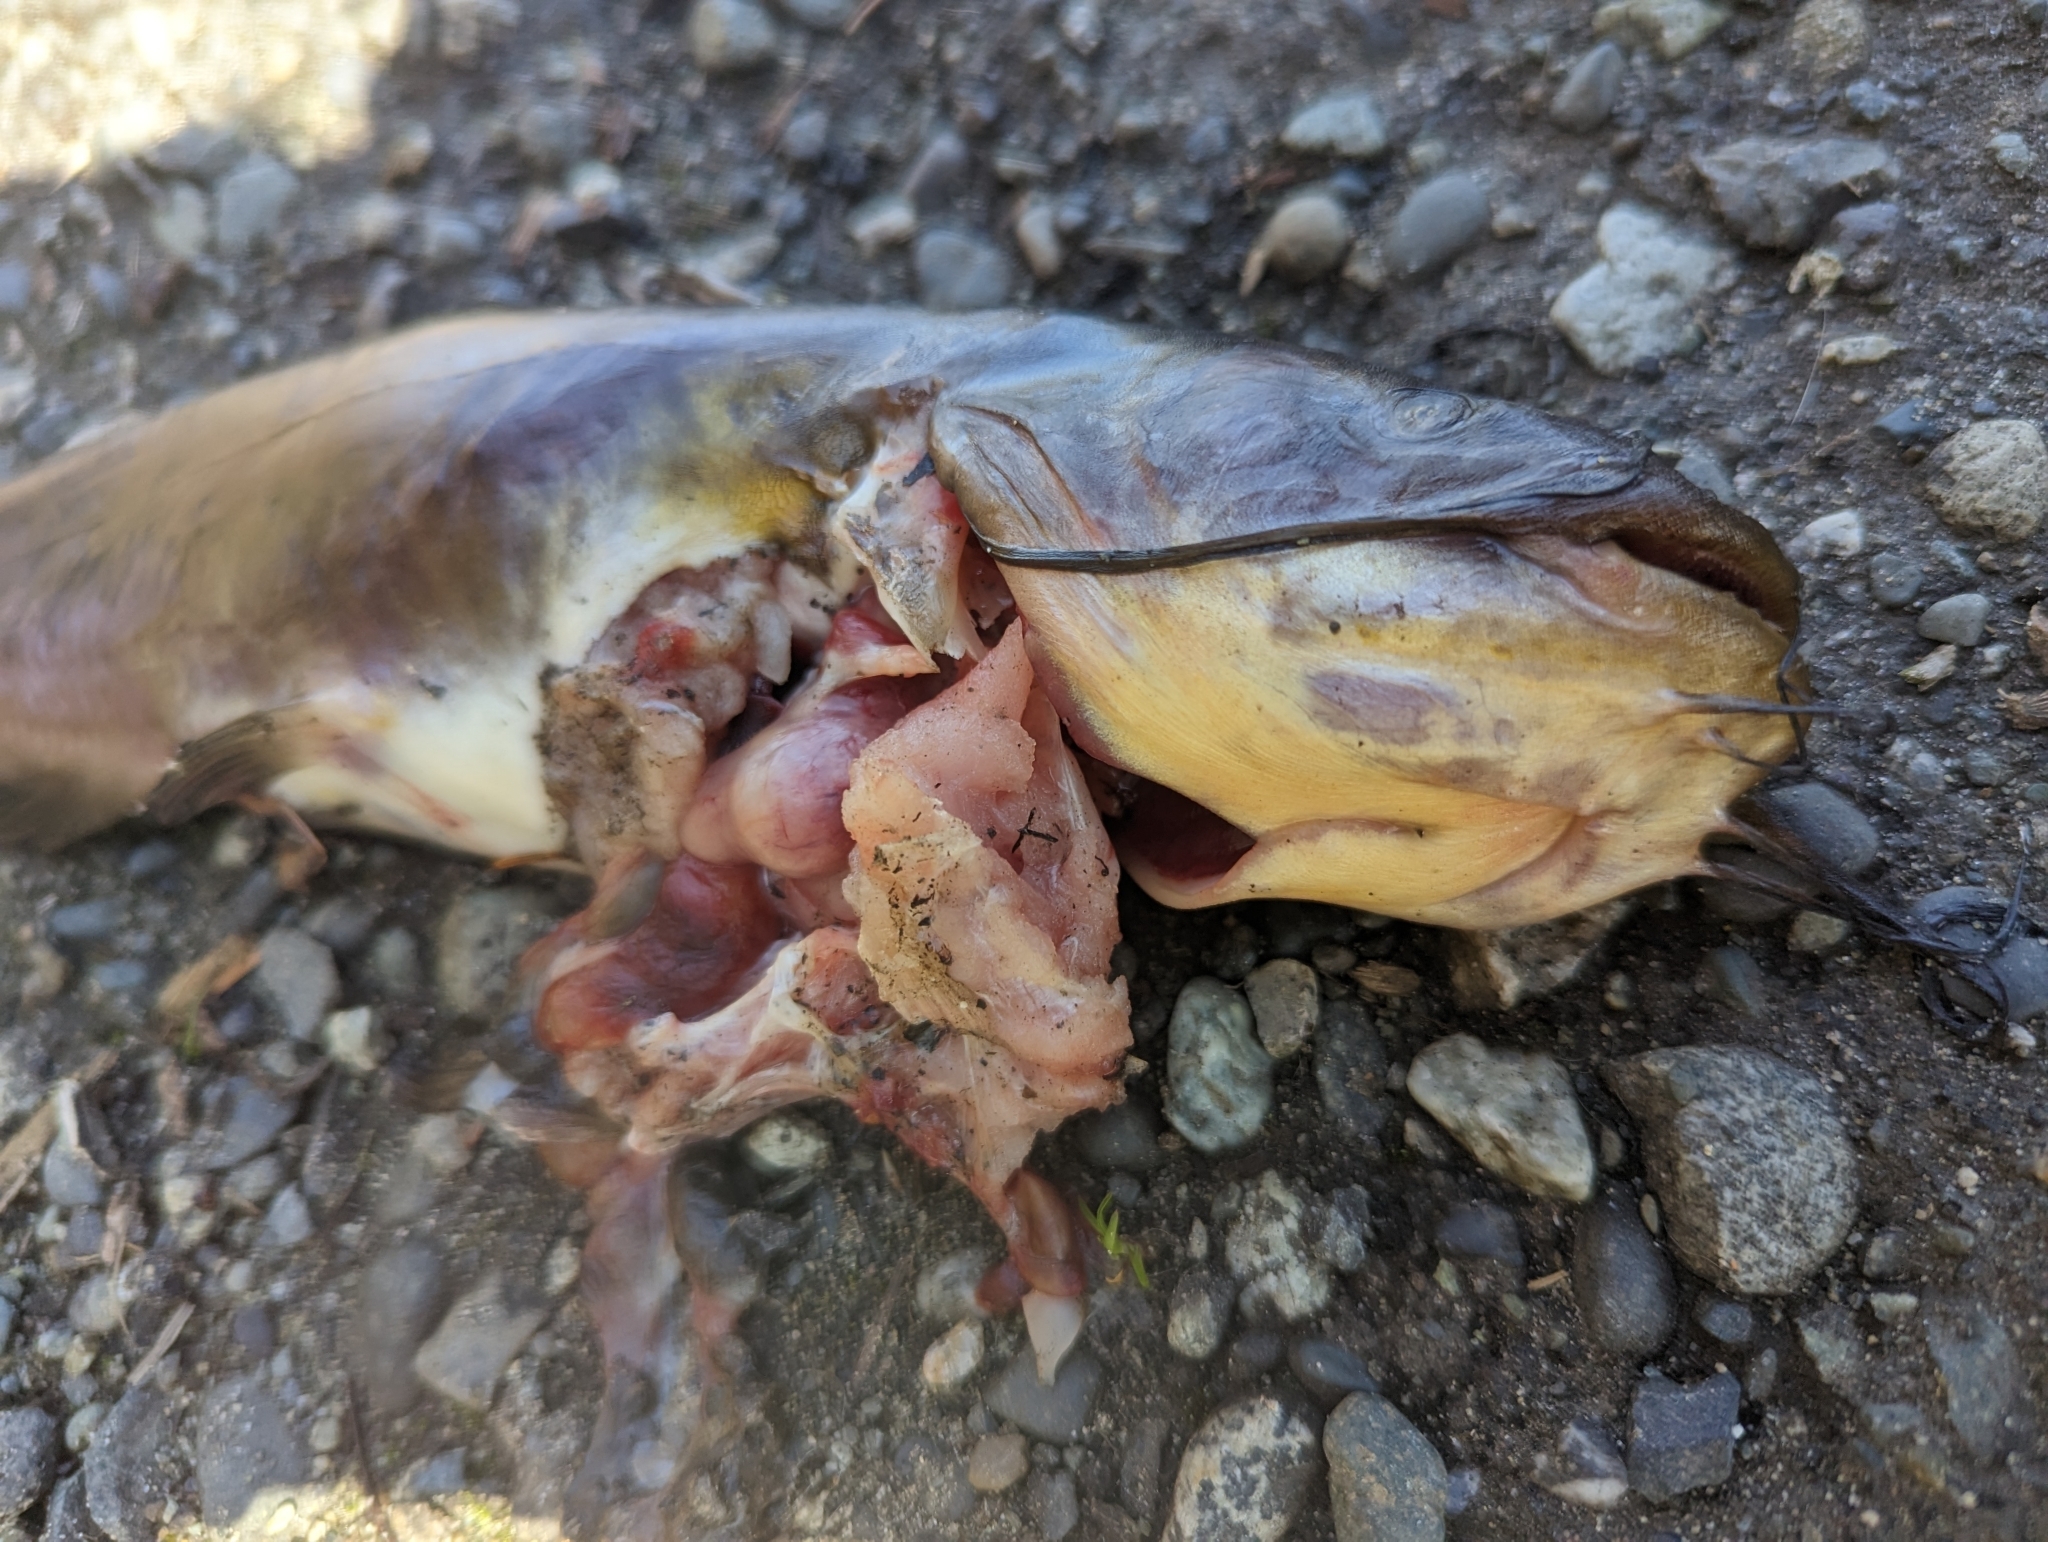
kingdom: Animalia
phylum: Chordata
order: Siluriformes
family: Ictaluridae
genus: Ameiurus
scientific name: Ameiurus nebulosus
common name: Brown bullhead
